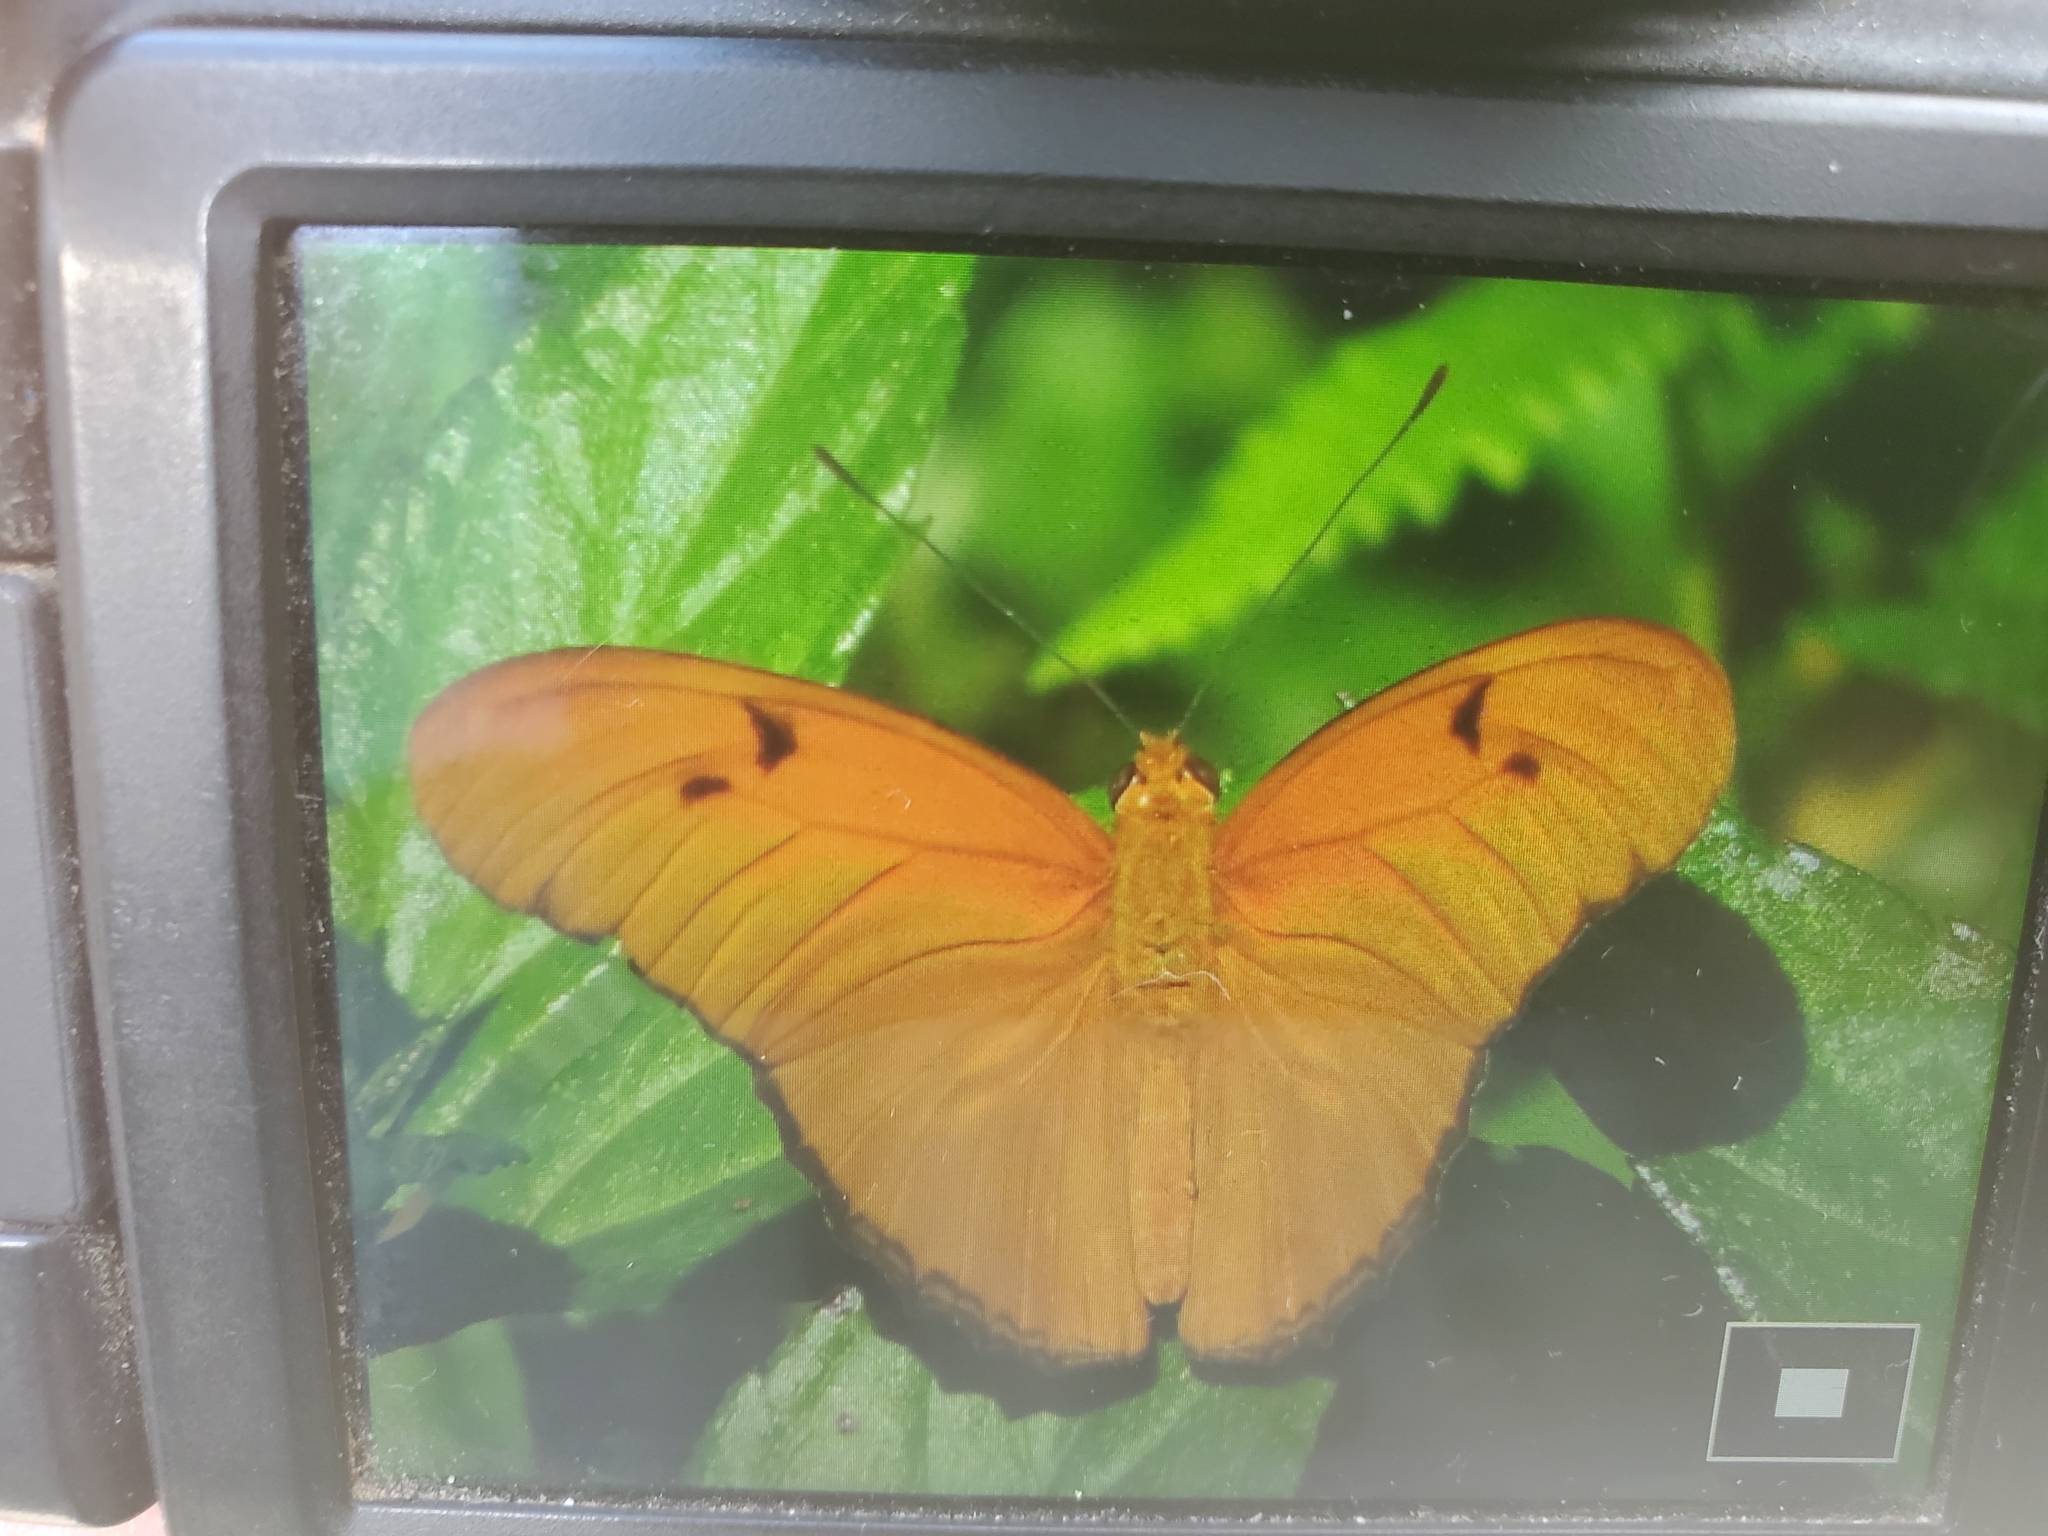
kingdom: Animalia
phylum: Arthropoda
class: Insecta
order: Lepidoptera
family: Nymphalidae
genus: Dryas
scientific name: Dryas iulia
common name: Flambeau
